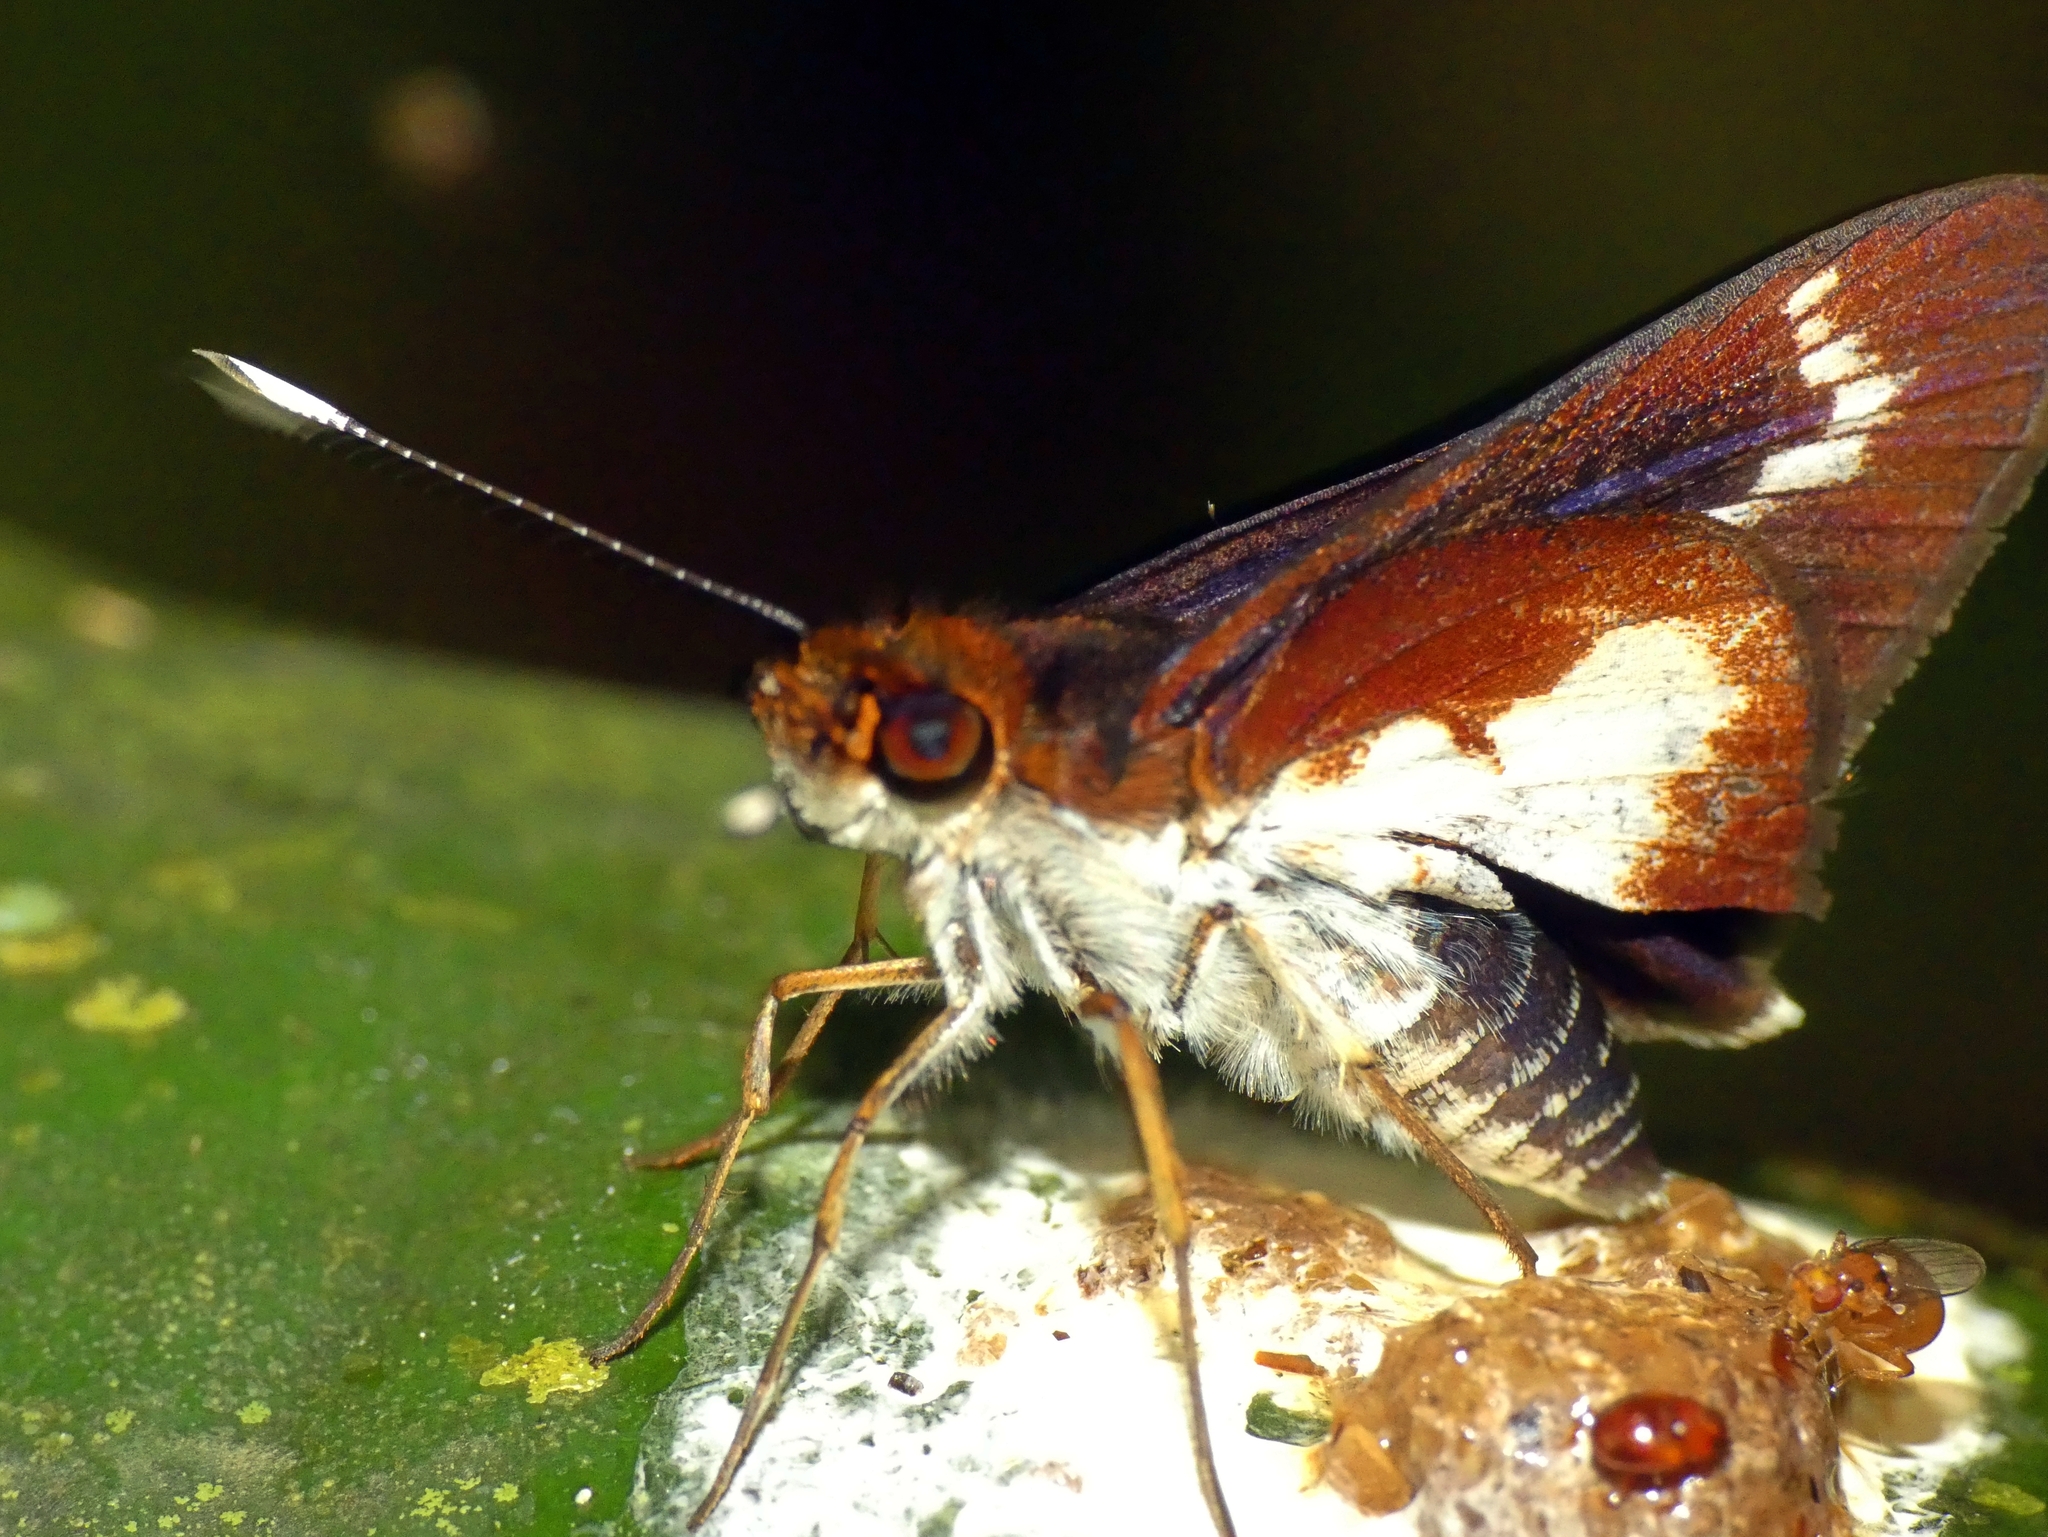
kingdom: Animalia
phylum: Arthropoda
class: Insecta
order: Lepidoptera
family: Hesperiidae
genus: Sabera
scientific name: Sabera caesina
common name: White-clubbed swift
